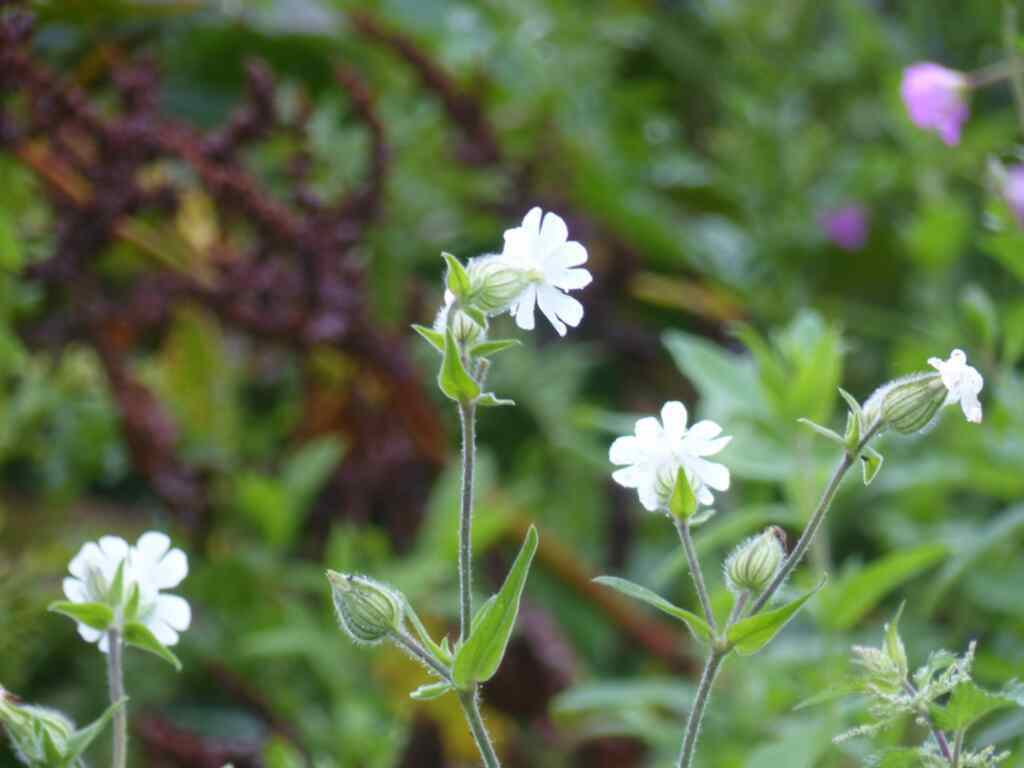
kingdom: Plantae
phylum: Tracheophyta
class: Magnoliopsida
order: Caryophyllales
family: Caryophyllaceae
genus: Silene
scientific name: Silene latifolia
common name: White campion
